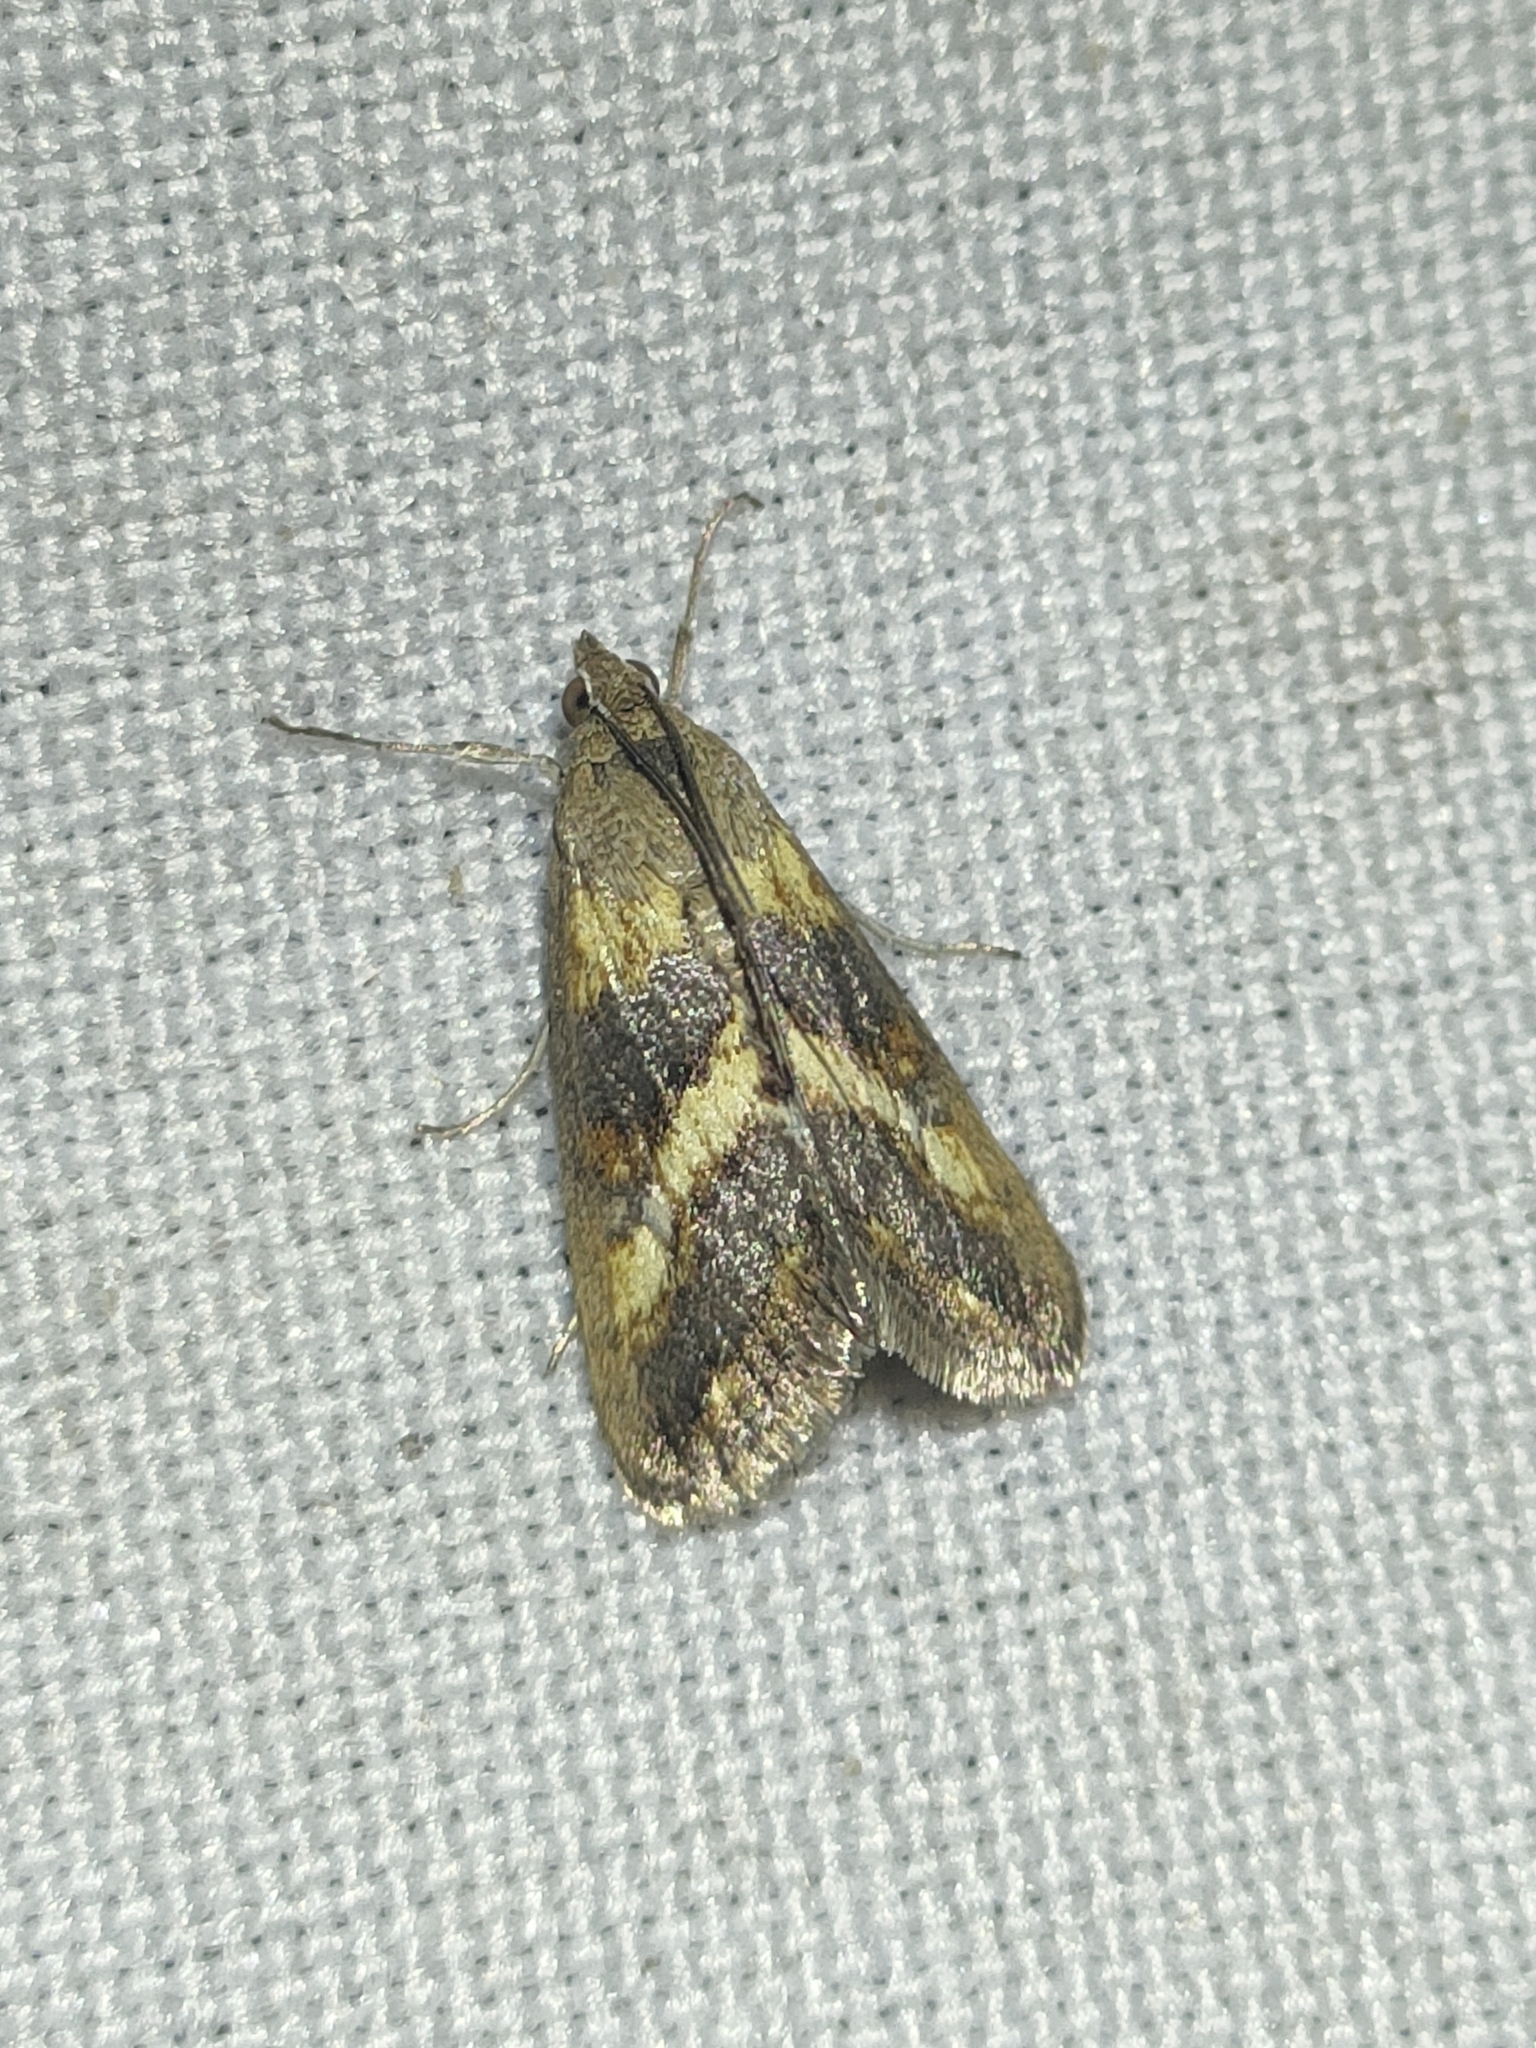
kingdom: Animalia
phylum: Arthropoda
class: Insecta
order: Lepidoptera
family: Crambidae
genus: Evergestis
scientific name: Evergestis marionalis
